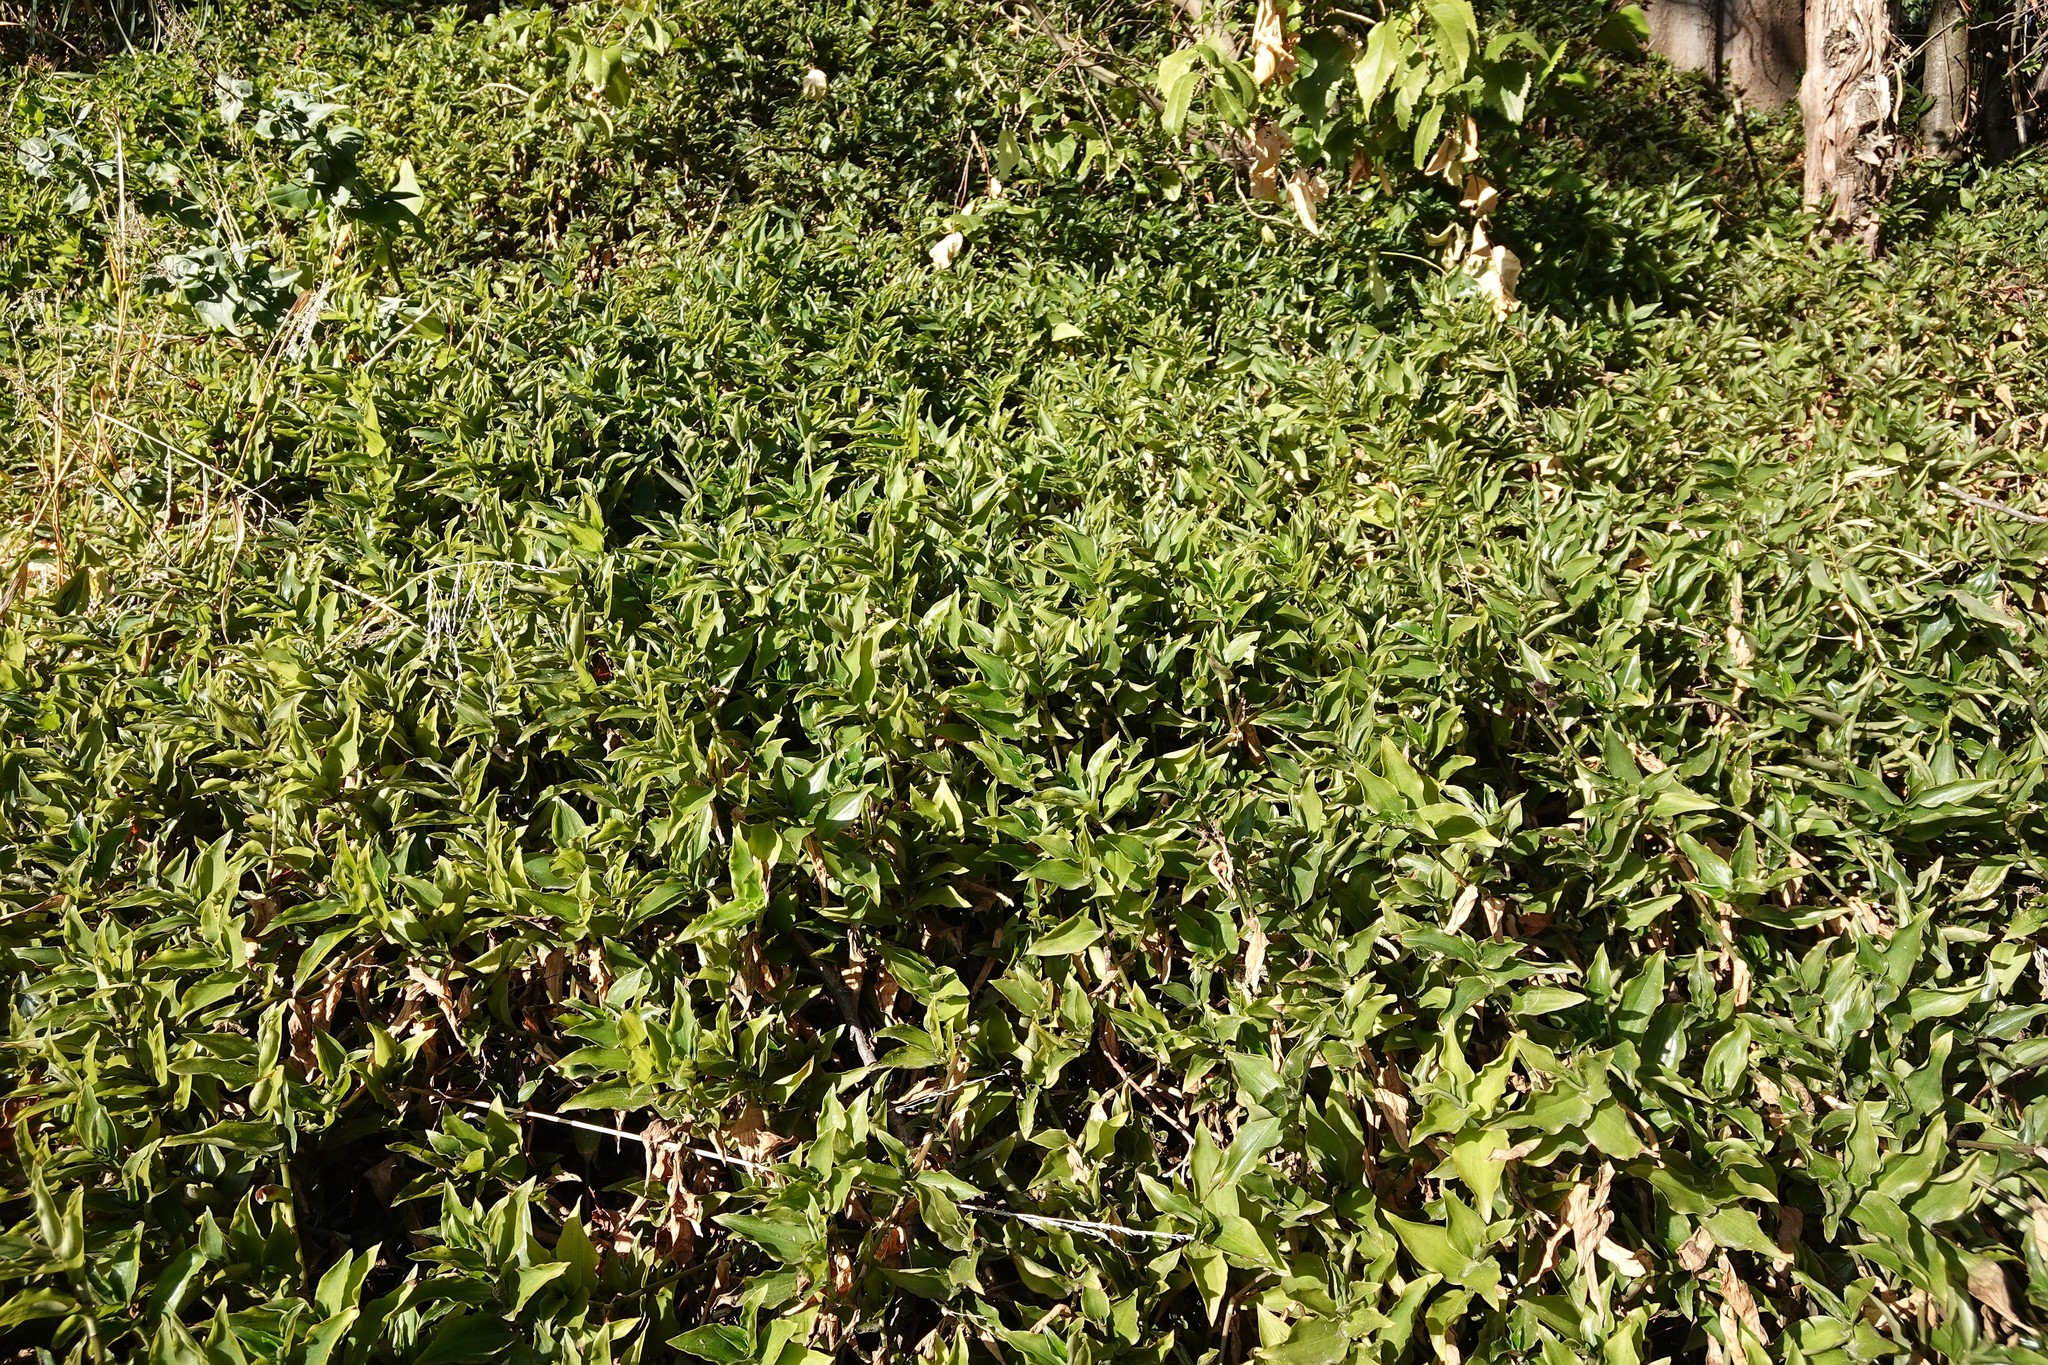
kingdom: Plantae
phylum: Tracheophyta
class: Liliopsida
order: Commelinales
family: Commelinaceae
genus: Tradescantia
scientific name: Tradescantia fluminensis
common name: Wandering-jew
